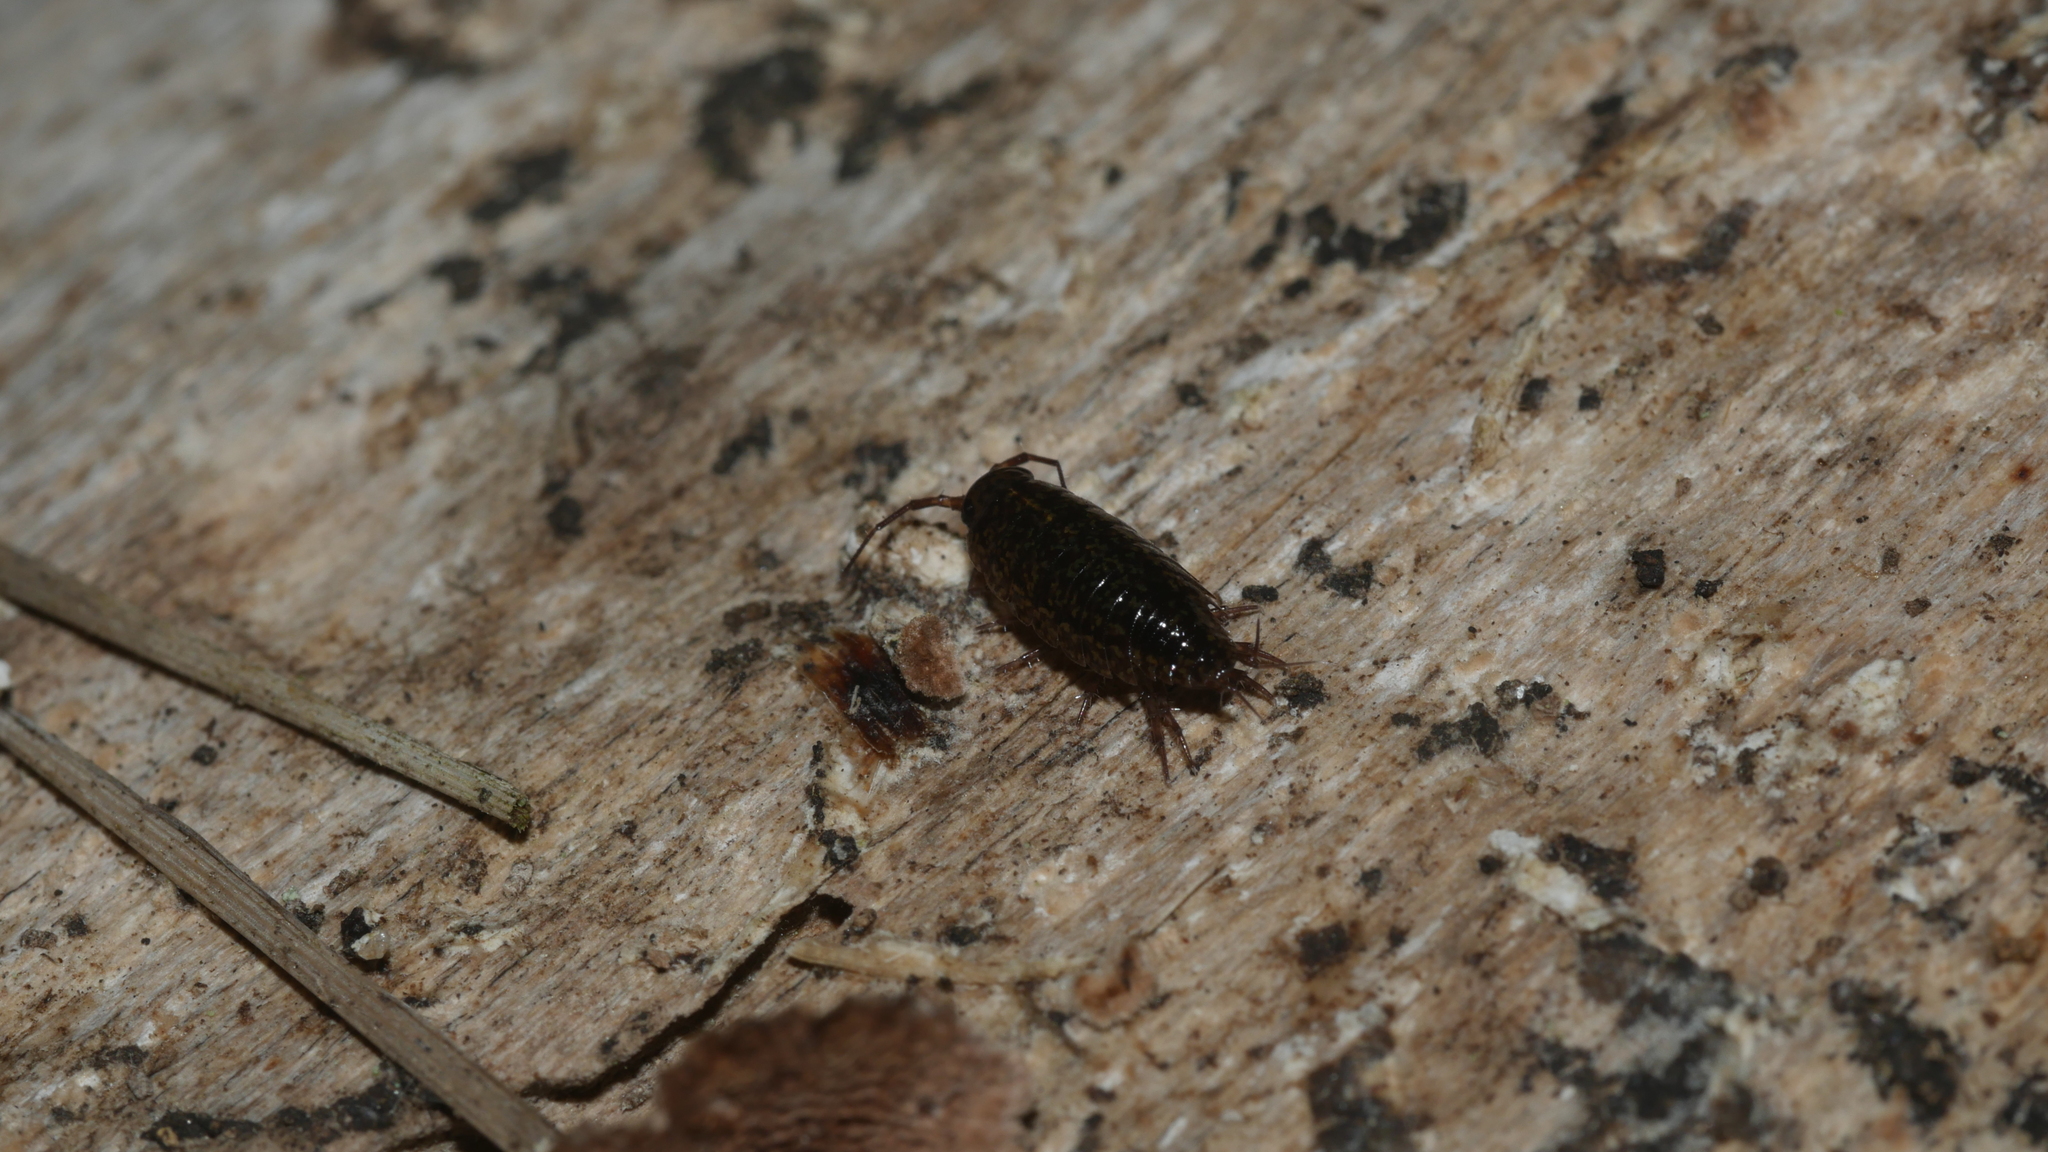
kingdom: Animalia
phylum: Arthropoda
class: Malacostraca
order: Isopoda
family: Ligiidae
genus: Ligidium
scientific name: Ligidium elrodii
